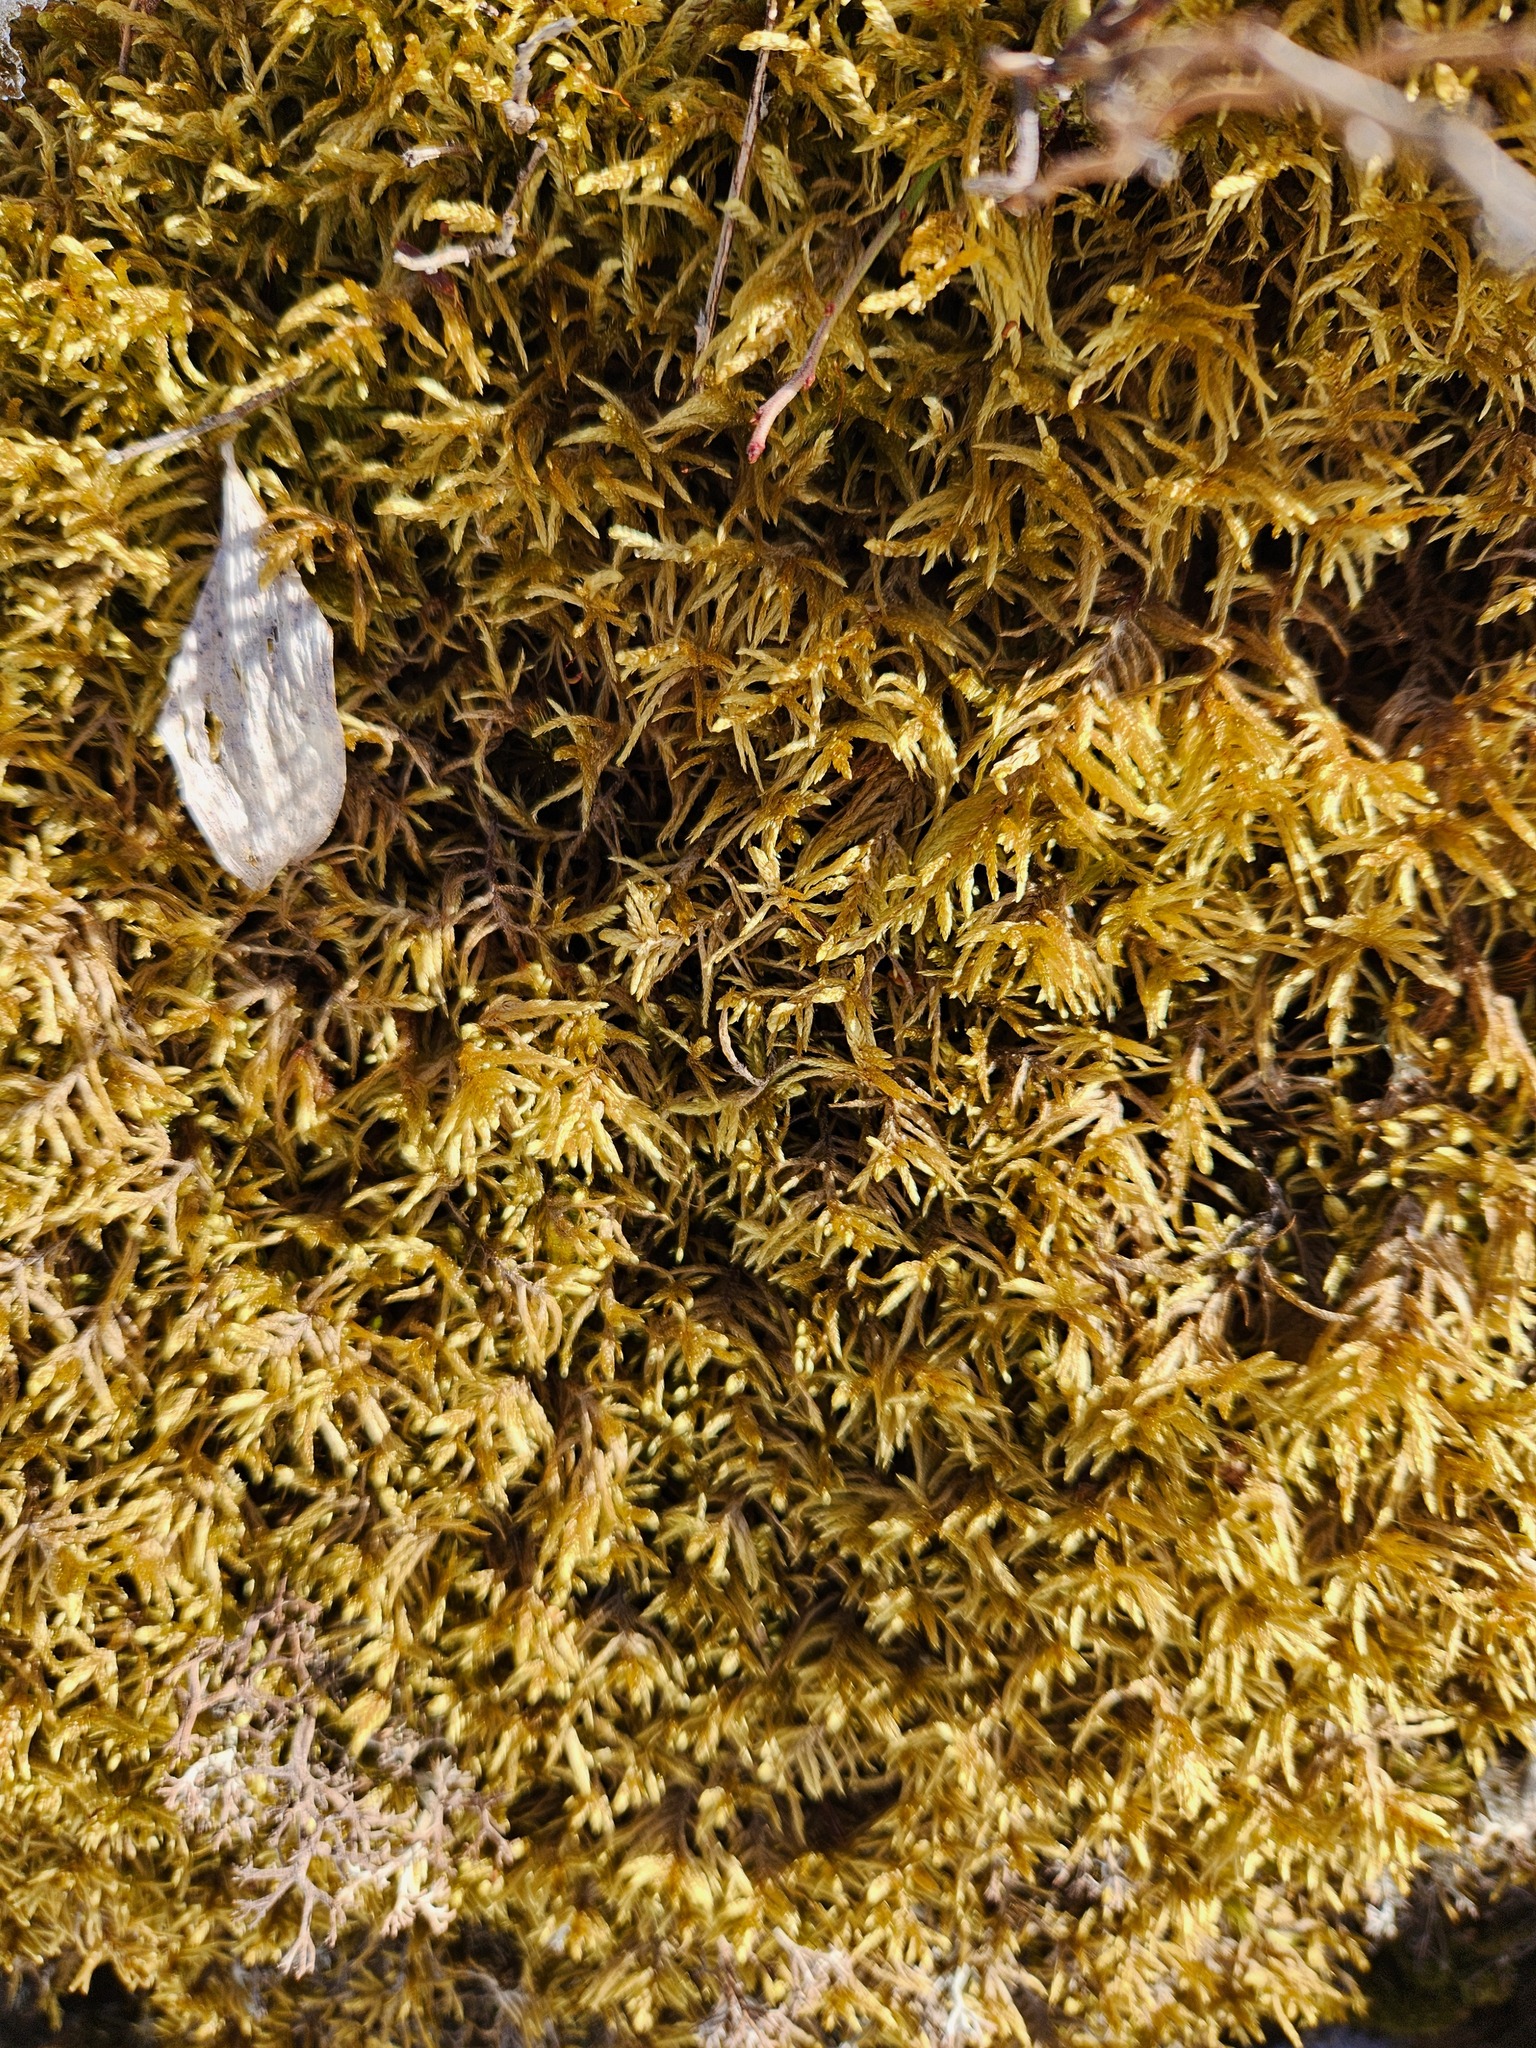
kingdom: Plantae
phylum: Bryophyta
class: Bryopsida
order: Hypnales
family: Hylocomiaceae
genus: Pleurozium
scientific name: Pleurozium schreberi
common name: Red-stemmed feather moss
